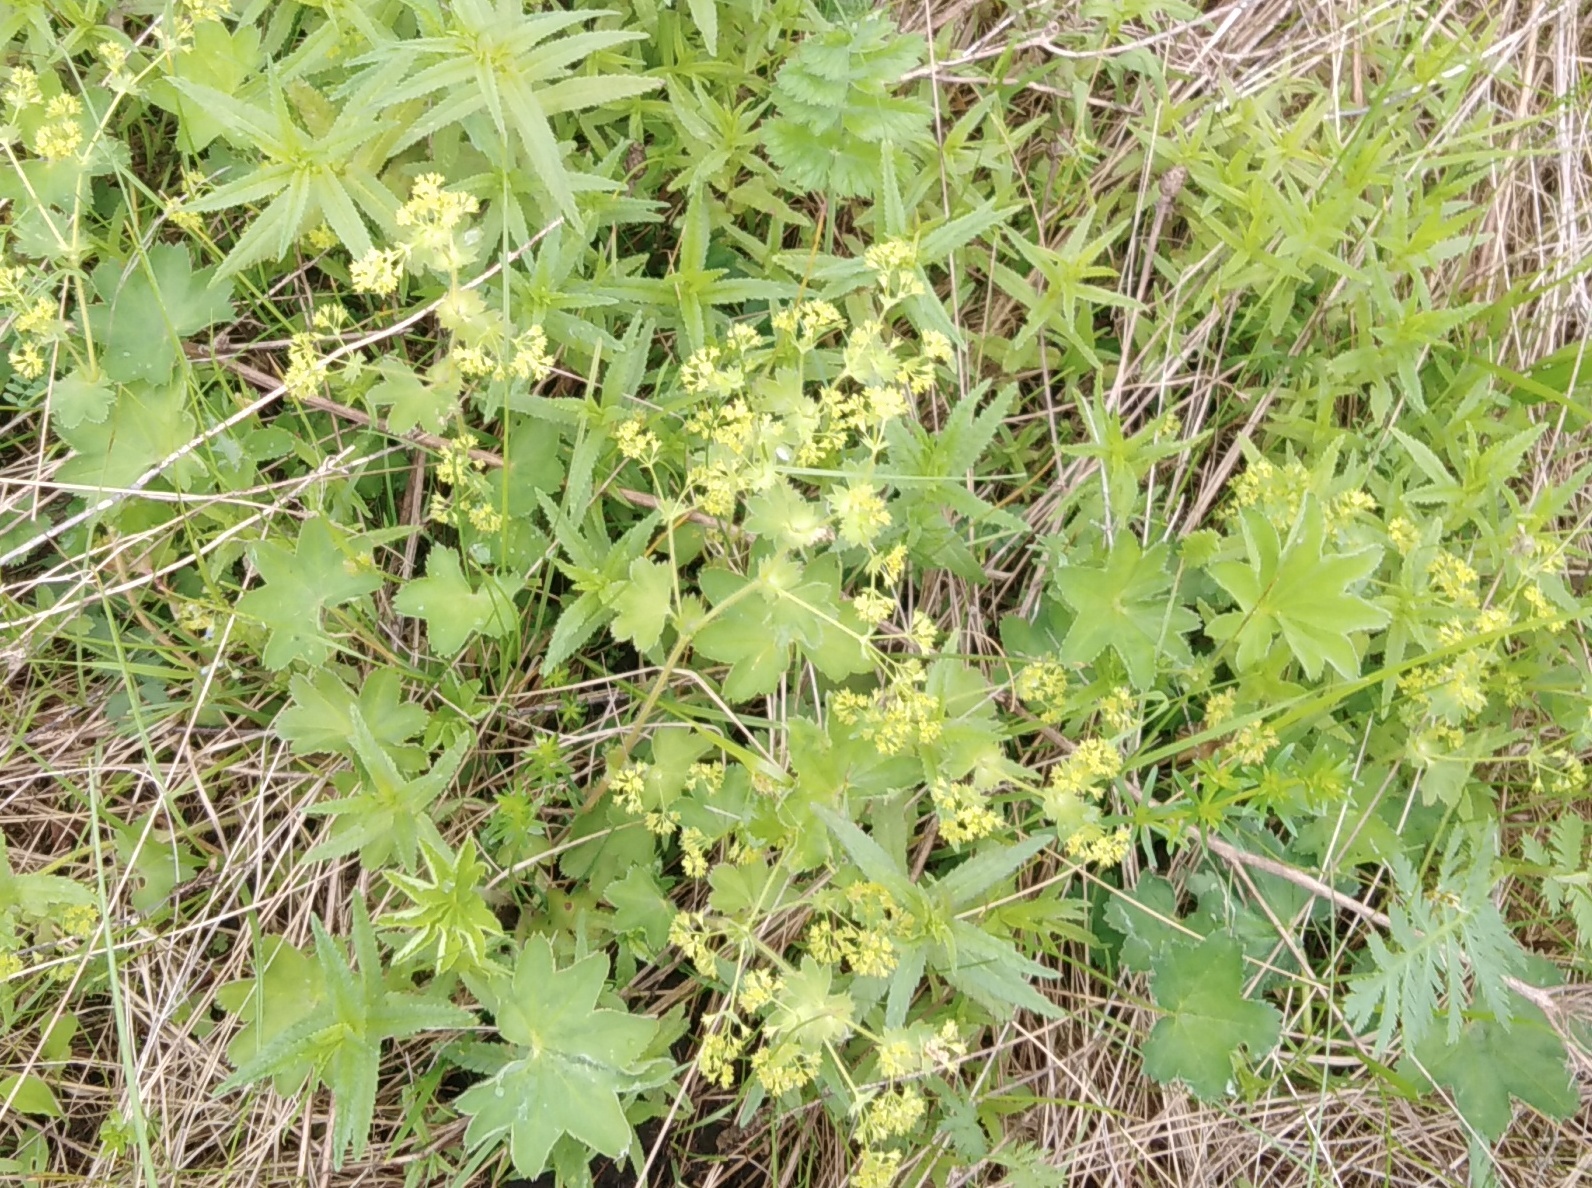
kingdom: Plantae
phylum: Tracheophyta
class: Magnoliopsida
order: Rosales
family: Rosaceae
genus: Alchemilla
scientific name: Alchemilla micans
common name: Gleaming lady's mantle
